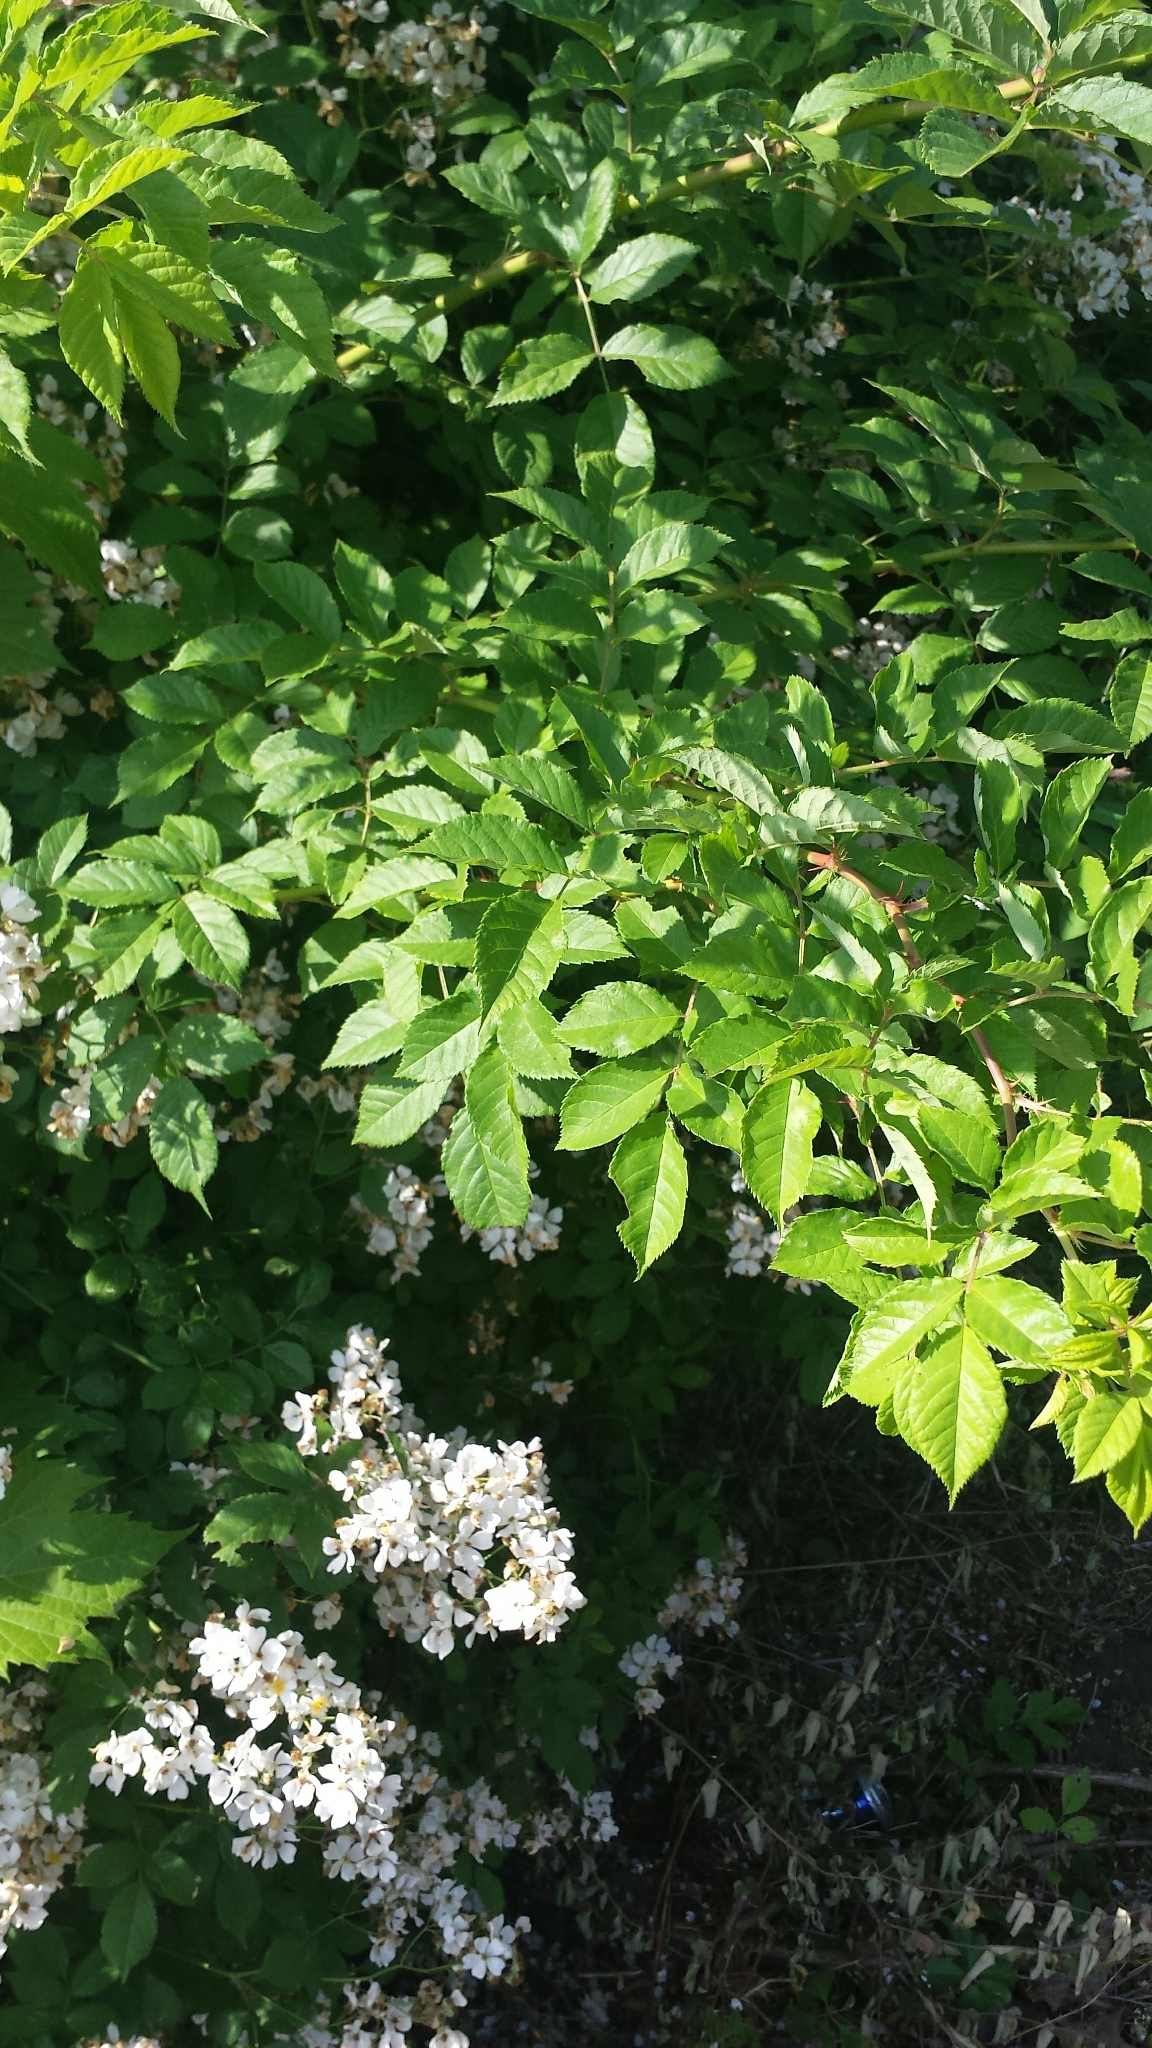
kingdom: Plantae
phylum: Tracheophyta
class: Magnoliopsida
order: Rosales
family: Rosaceae
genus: Rosa
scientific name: Rosa multiflora
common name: Multiflora rose
